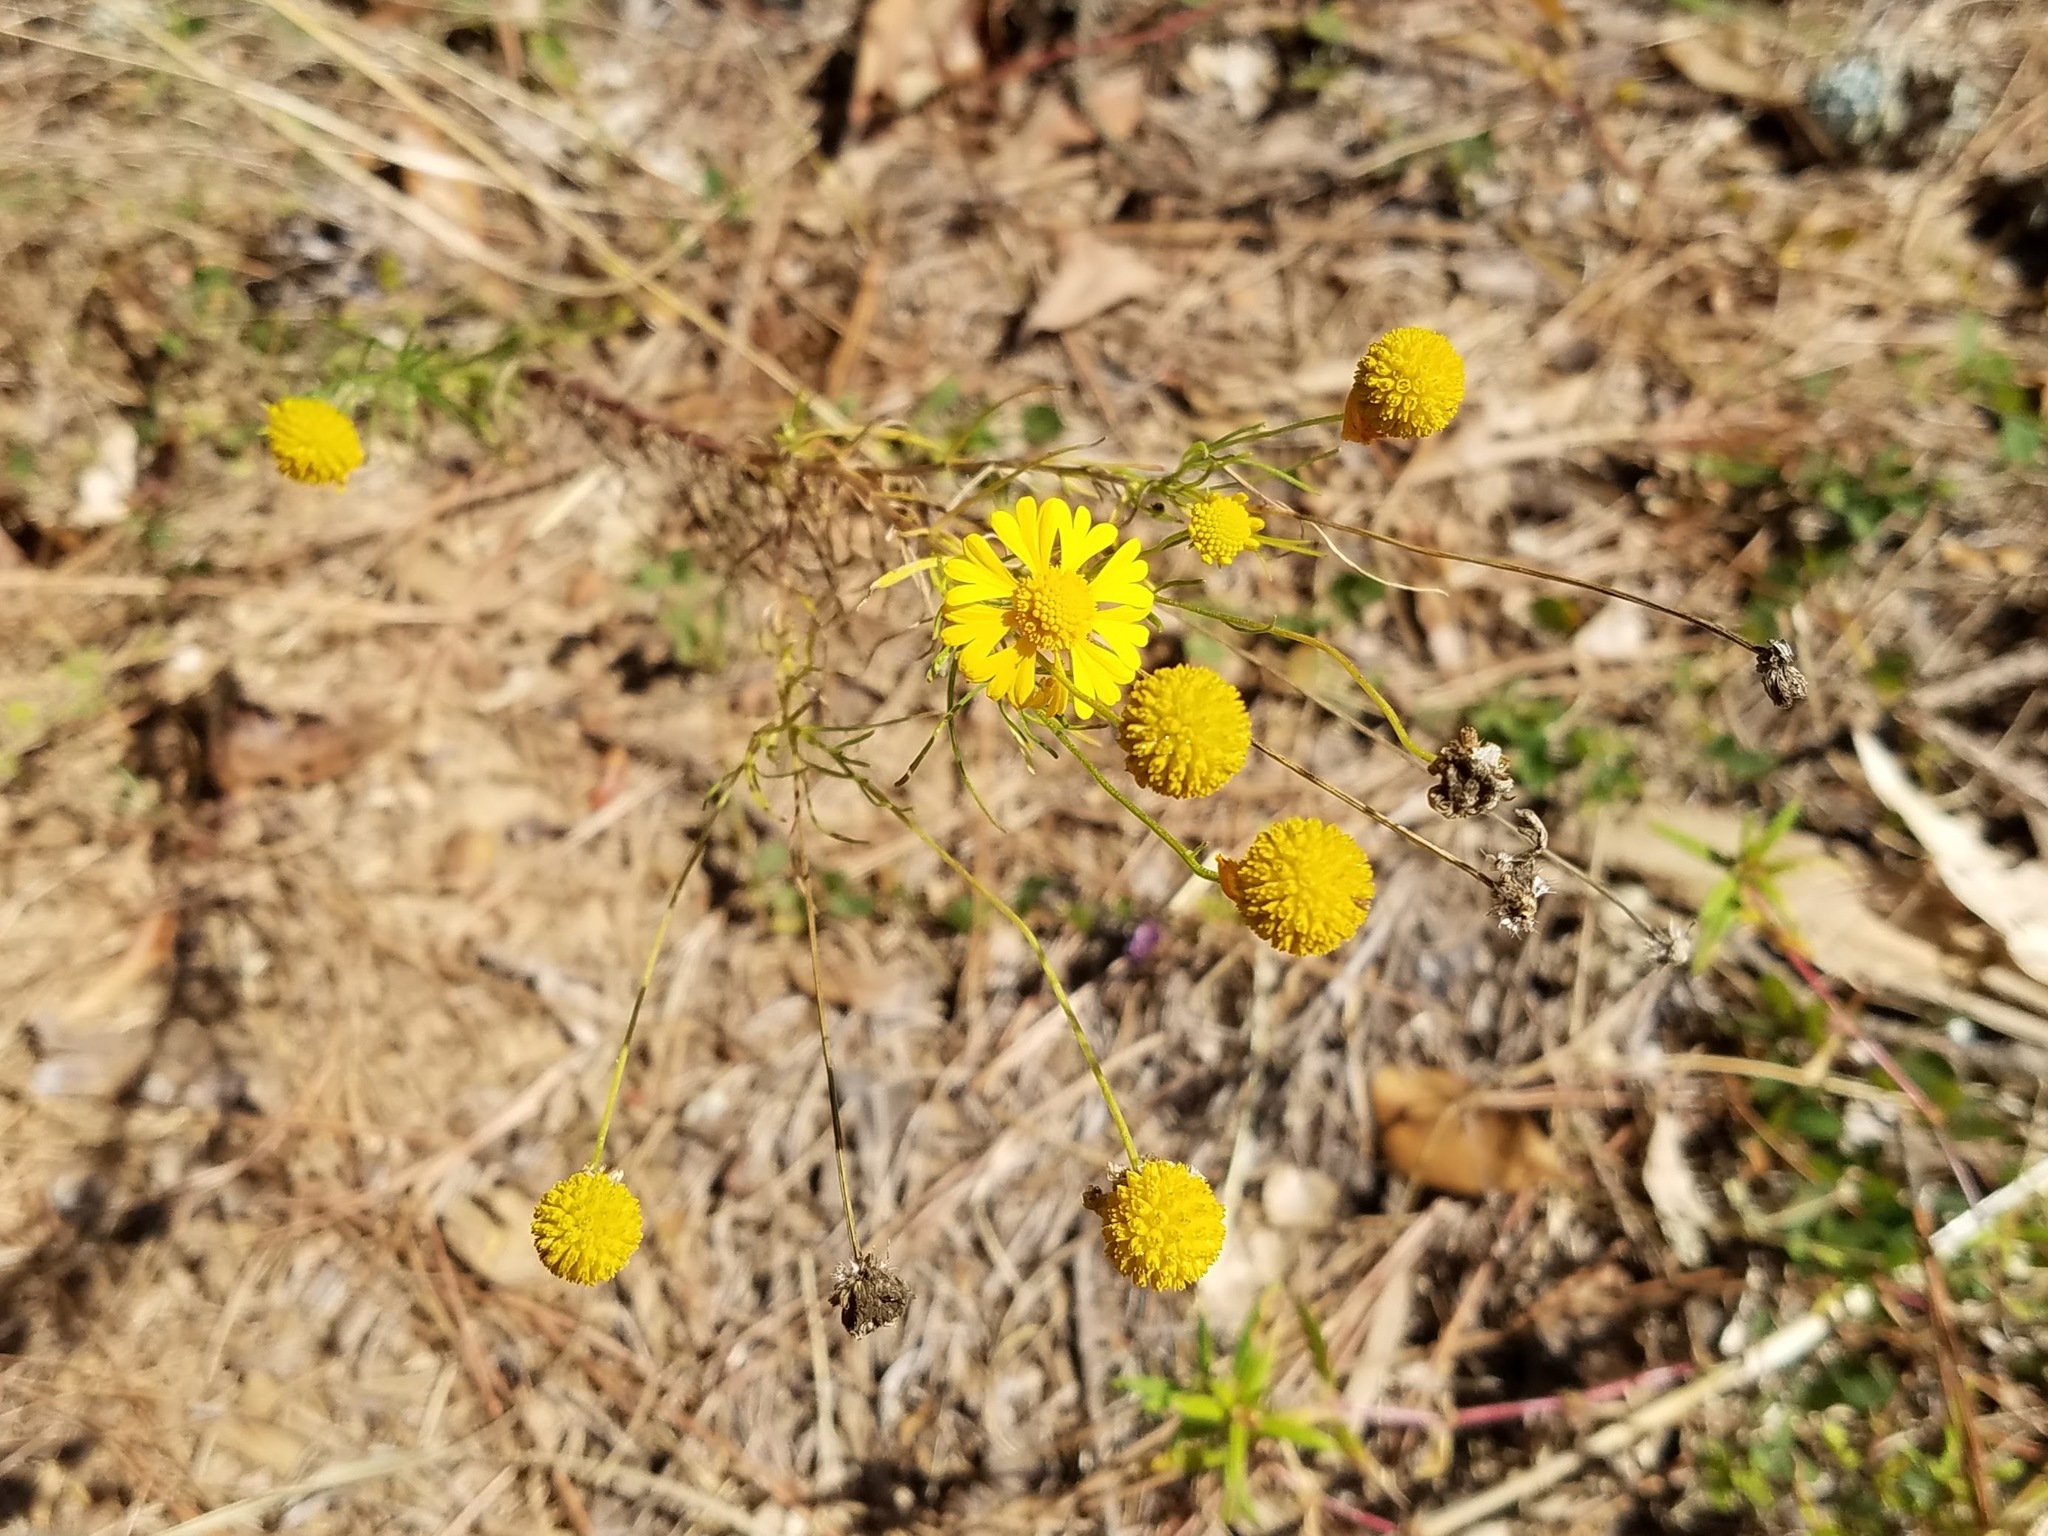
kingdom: Plantae
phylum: Tracheophyta
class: Magnoliopsida
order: Asterales
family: Asteraceae
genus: Helenium
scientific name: Helenium amarum
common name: Bitter sneezeweed
